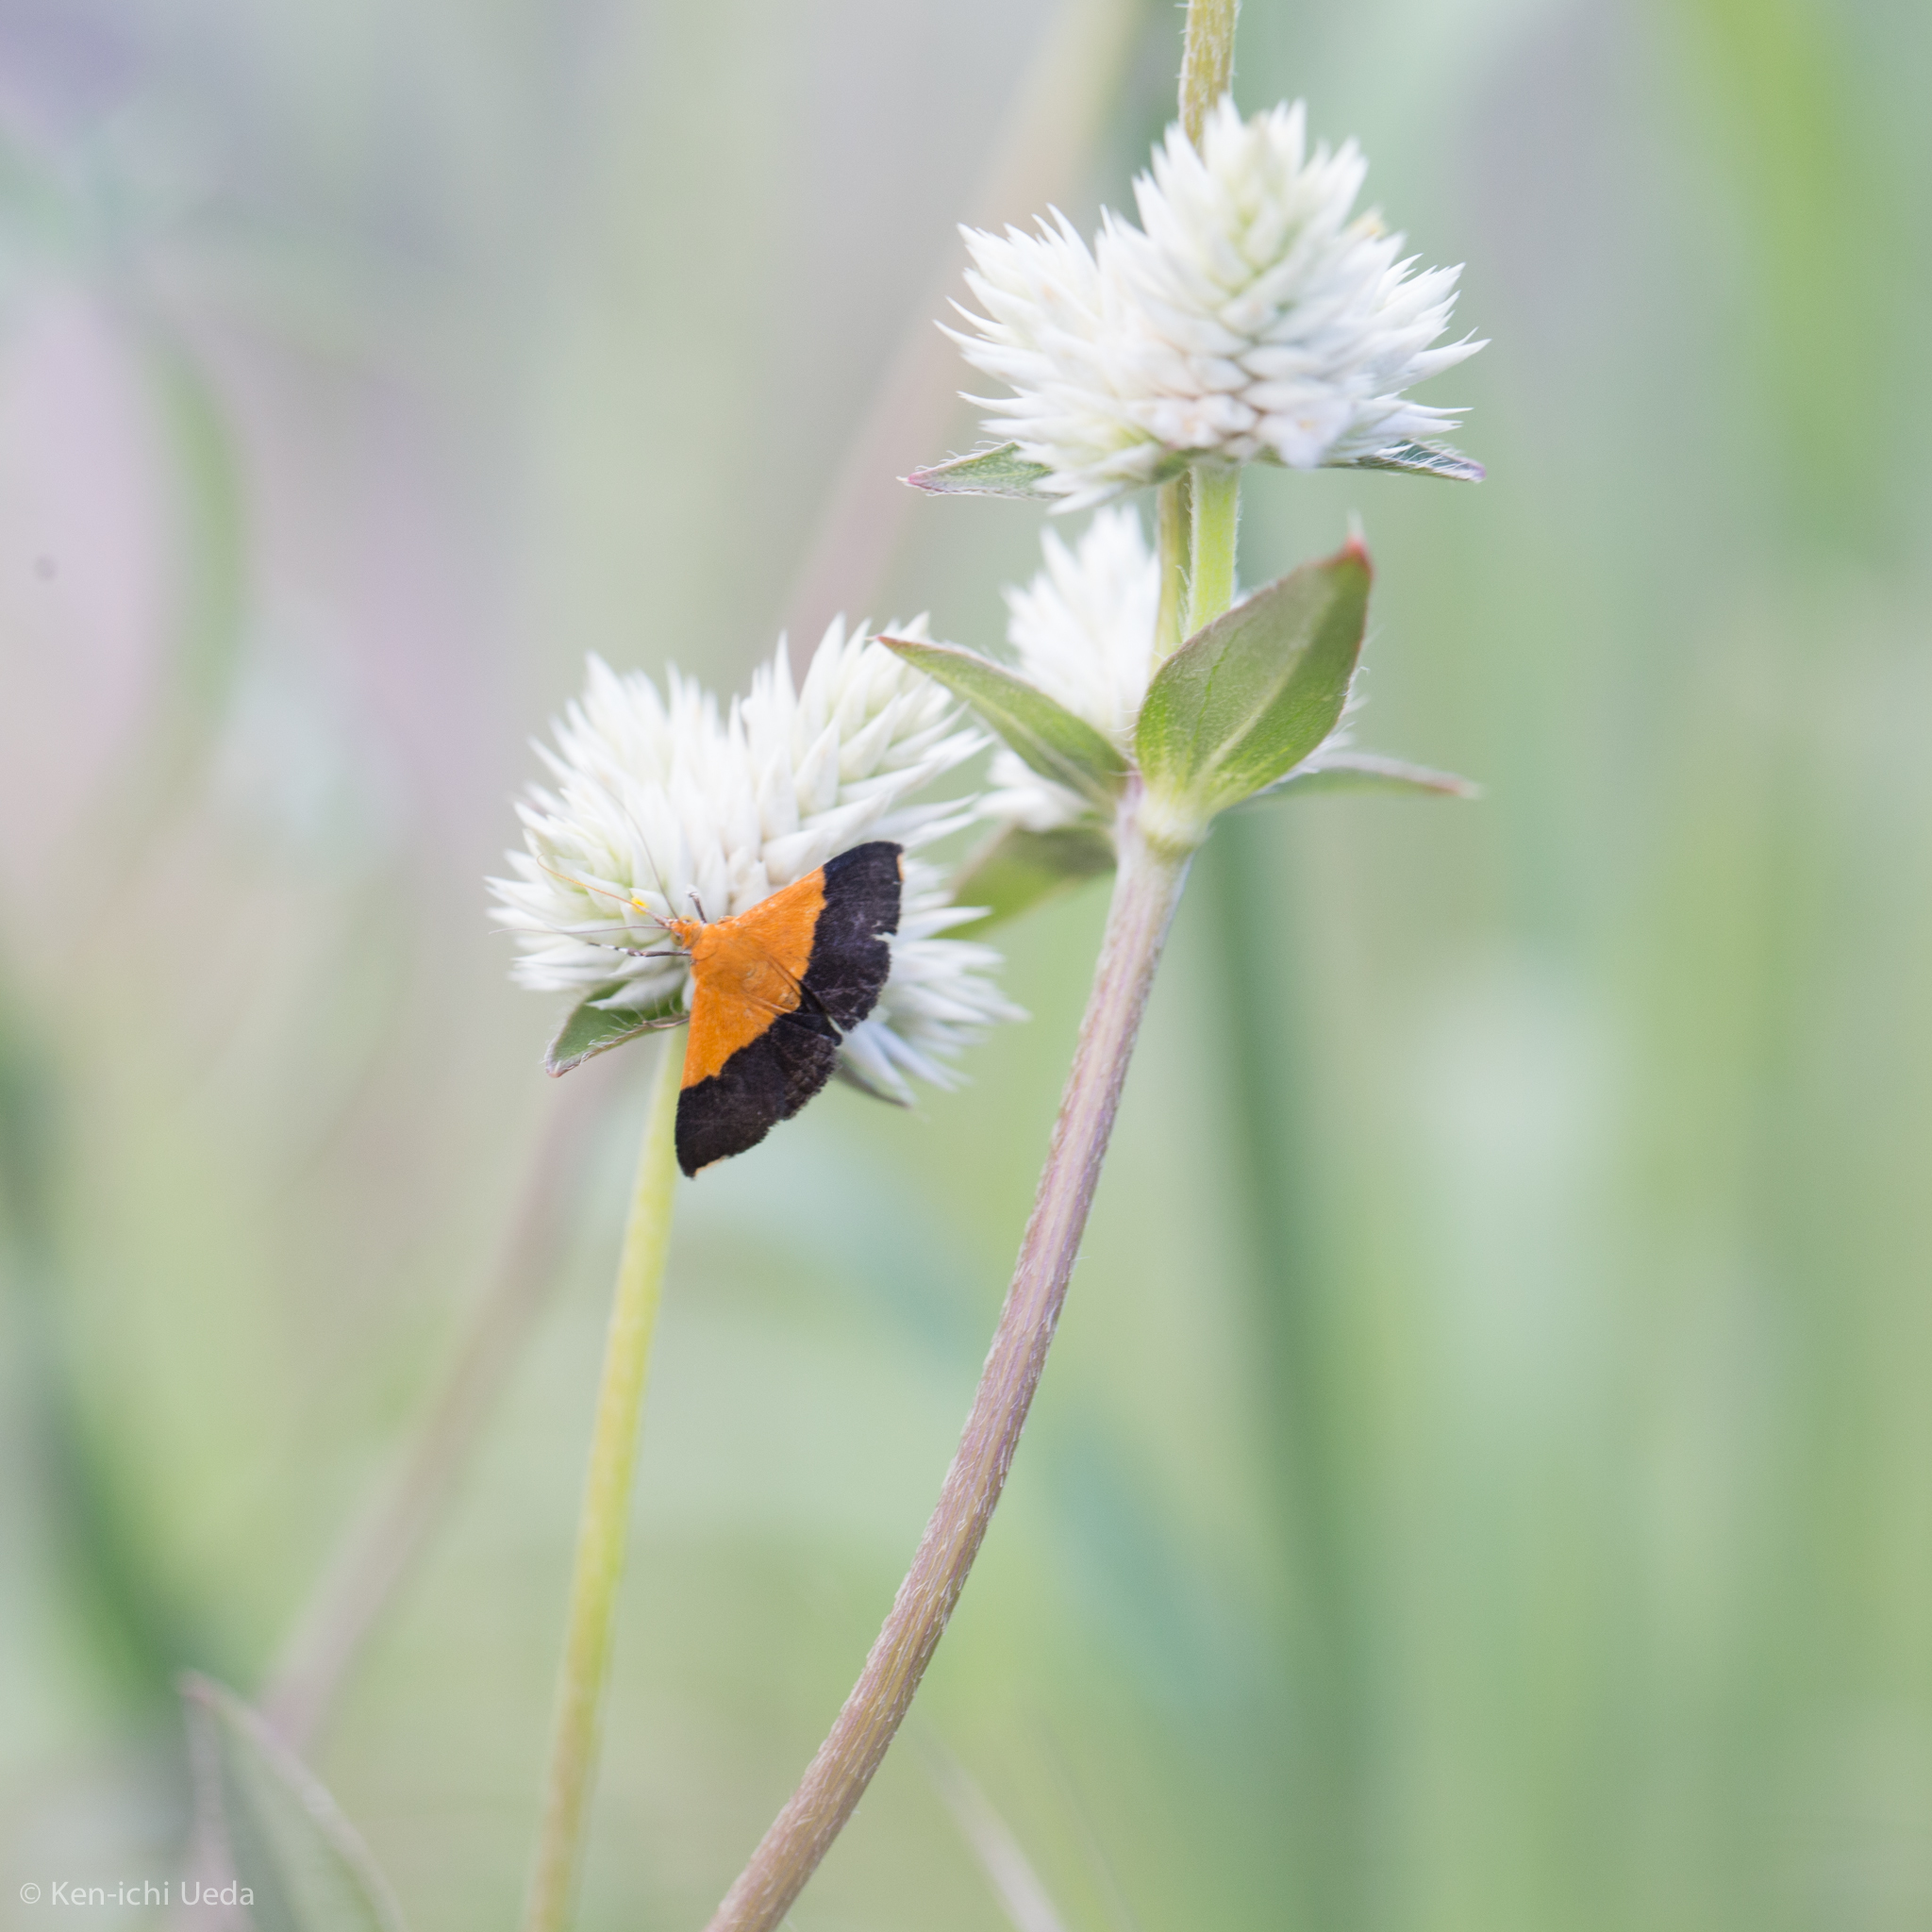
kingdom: Plantae
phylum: Tracheophyta
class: Magnoliopsida
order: Caryophyllales
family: Amaranthaceae
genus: Gomphrena
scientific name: Gomphrena sonorae
